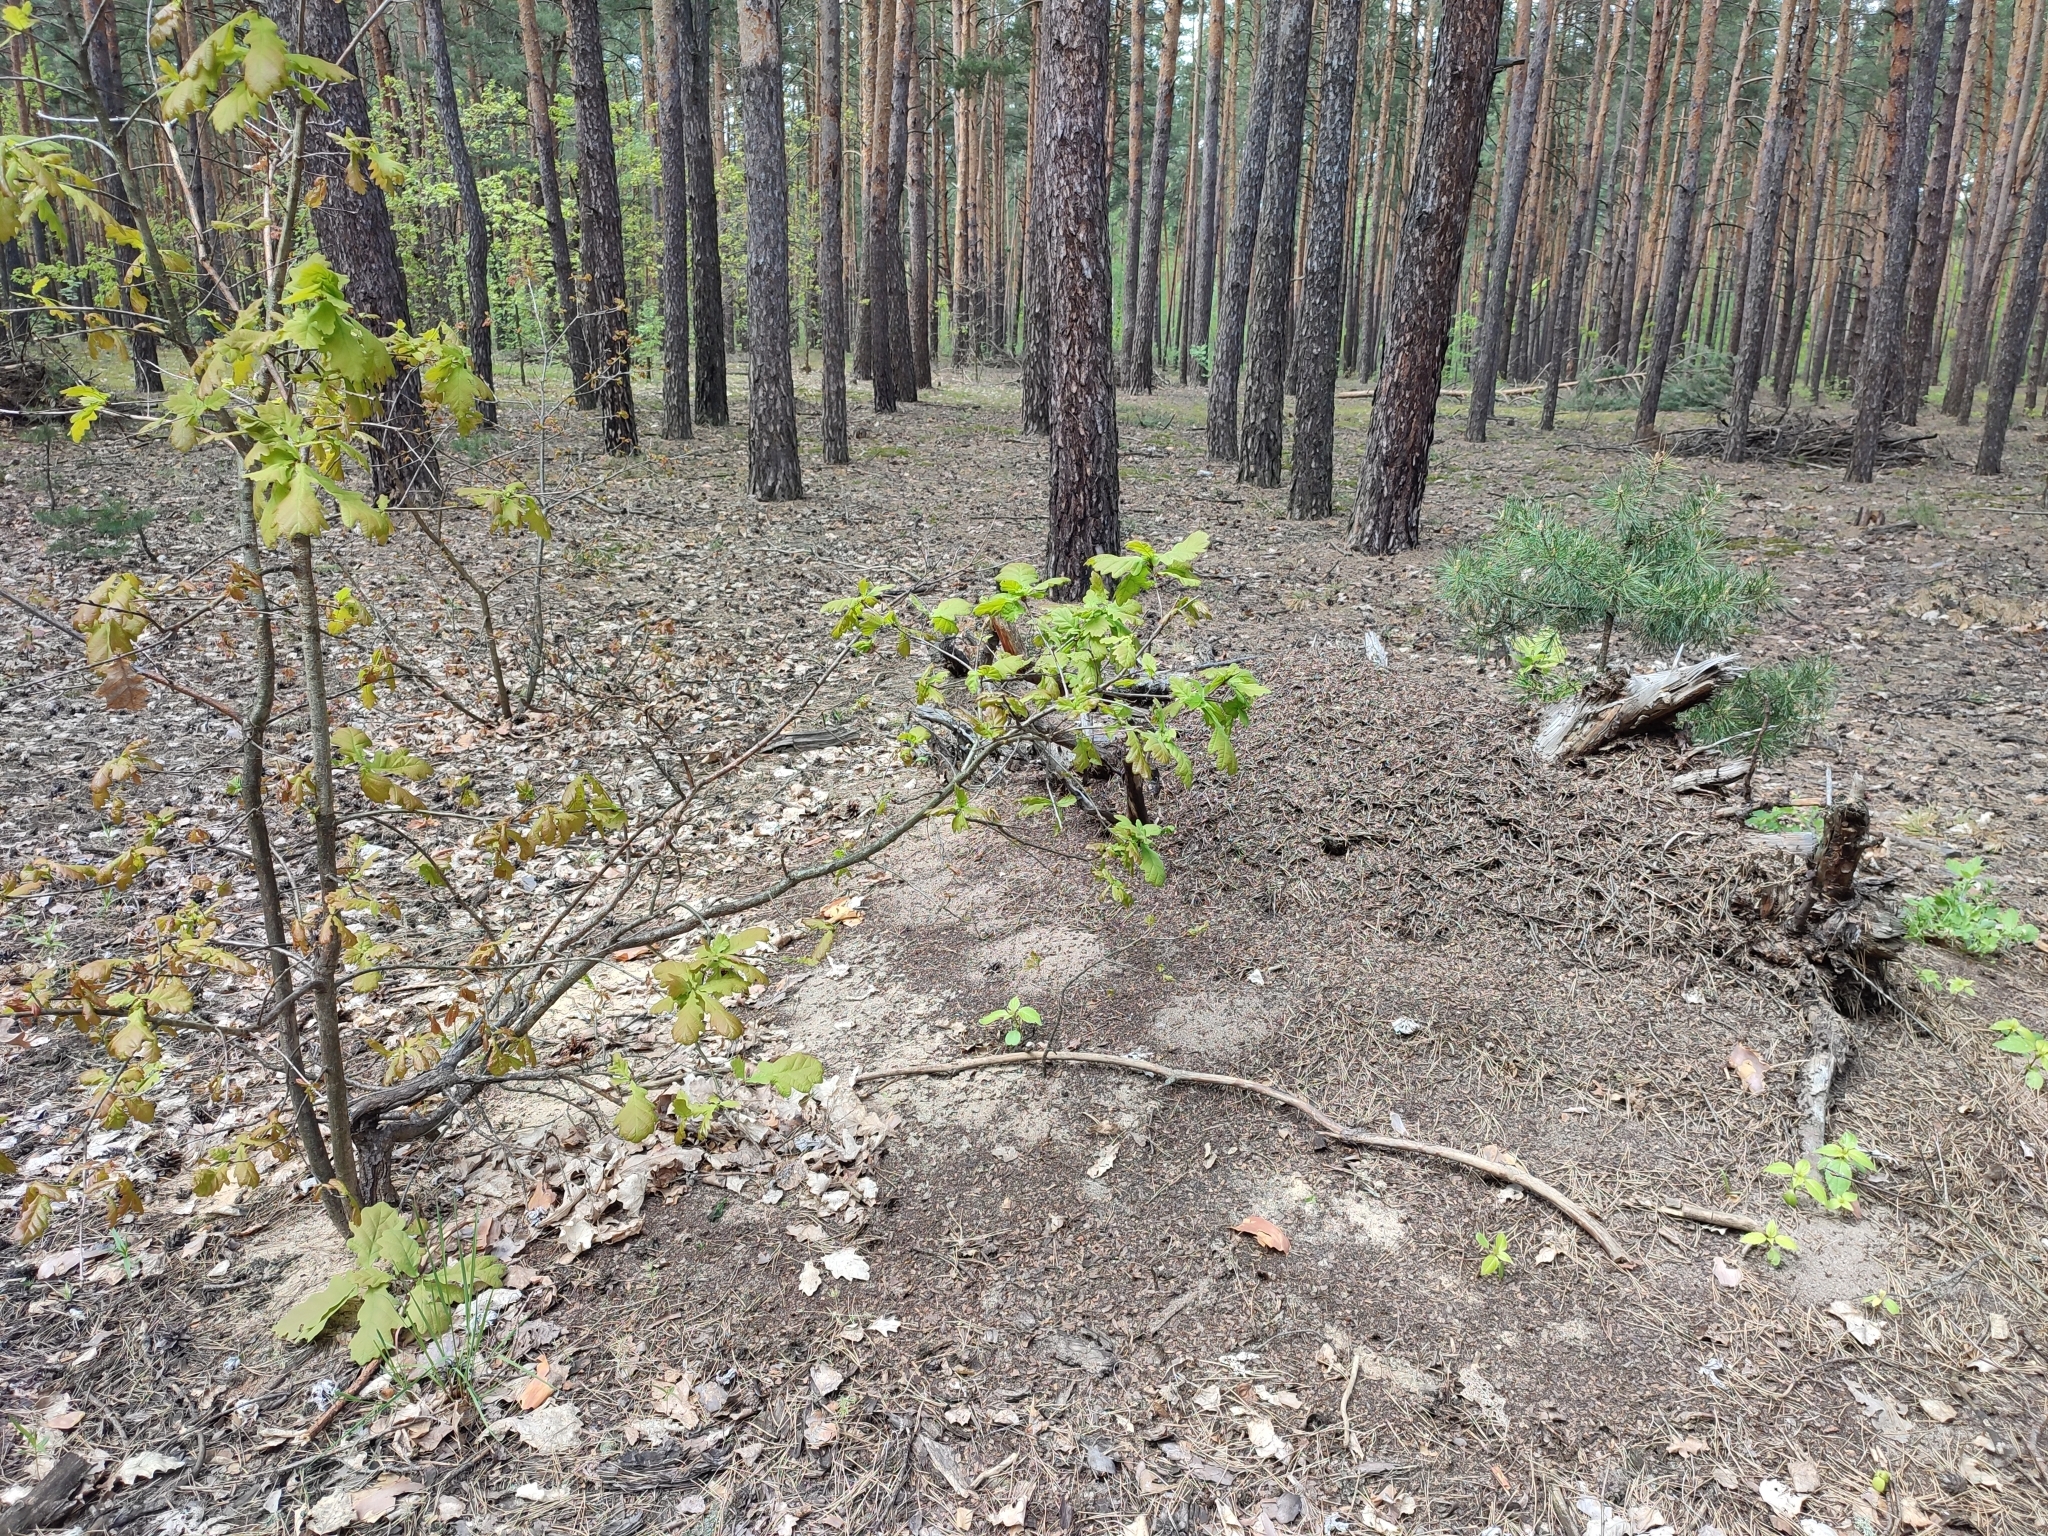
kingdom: Plantae
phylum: Tracheophyta
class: Magnoliopsida
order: Fagales
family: Fagaceae
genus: Quercus
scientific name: Quercus robur
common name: Pedunculate oak
